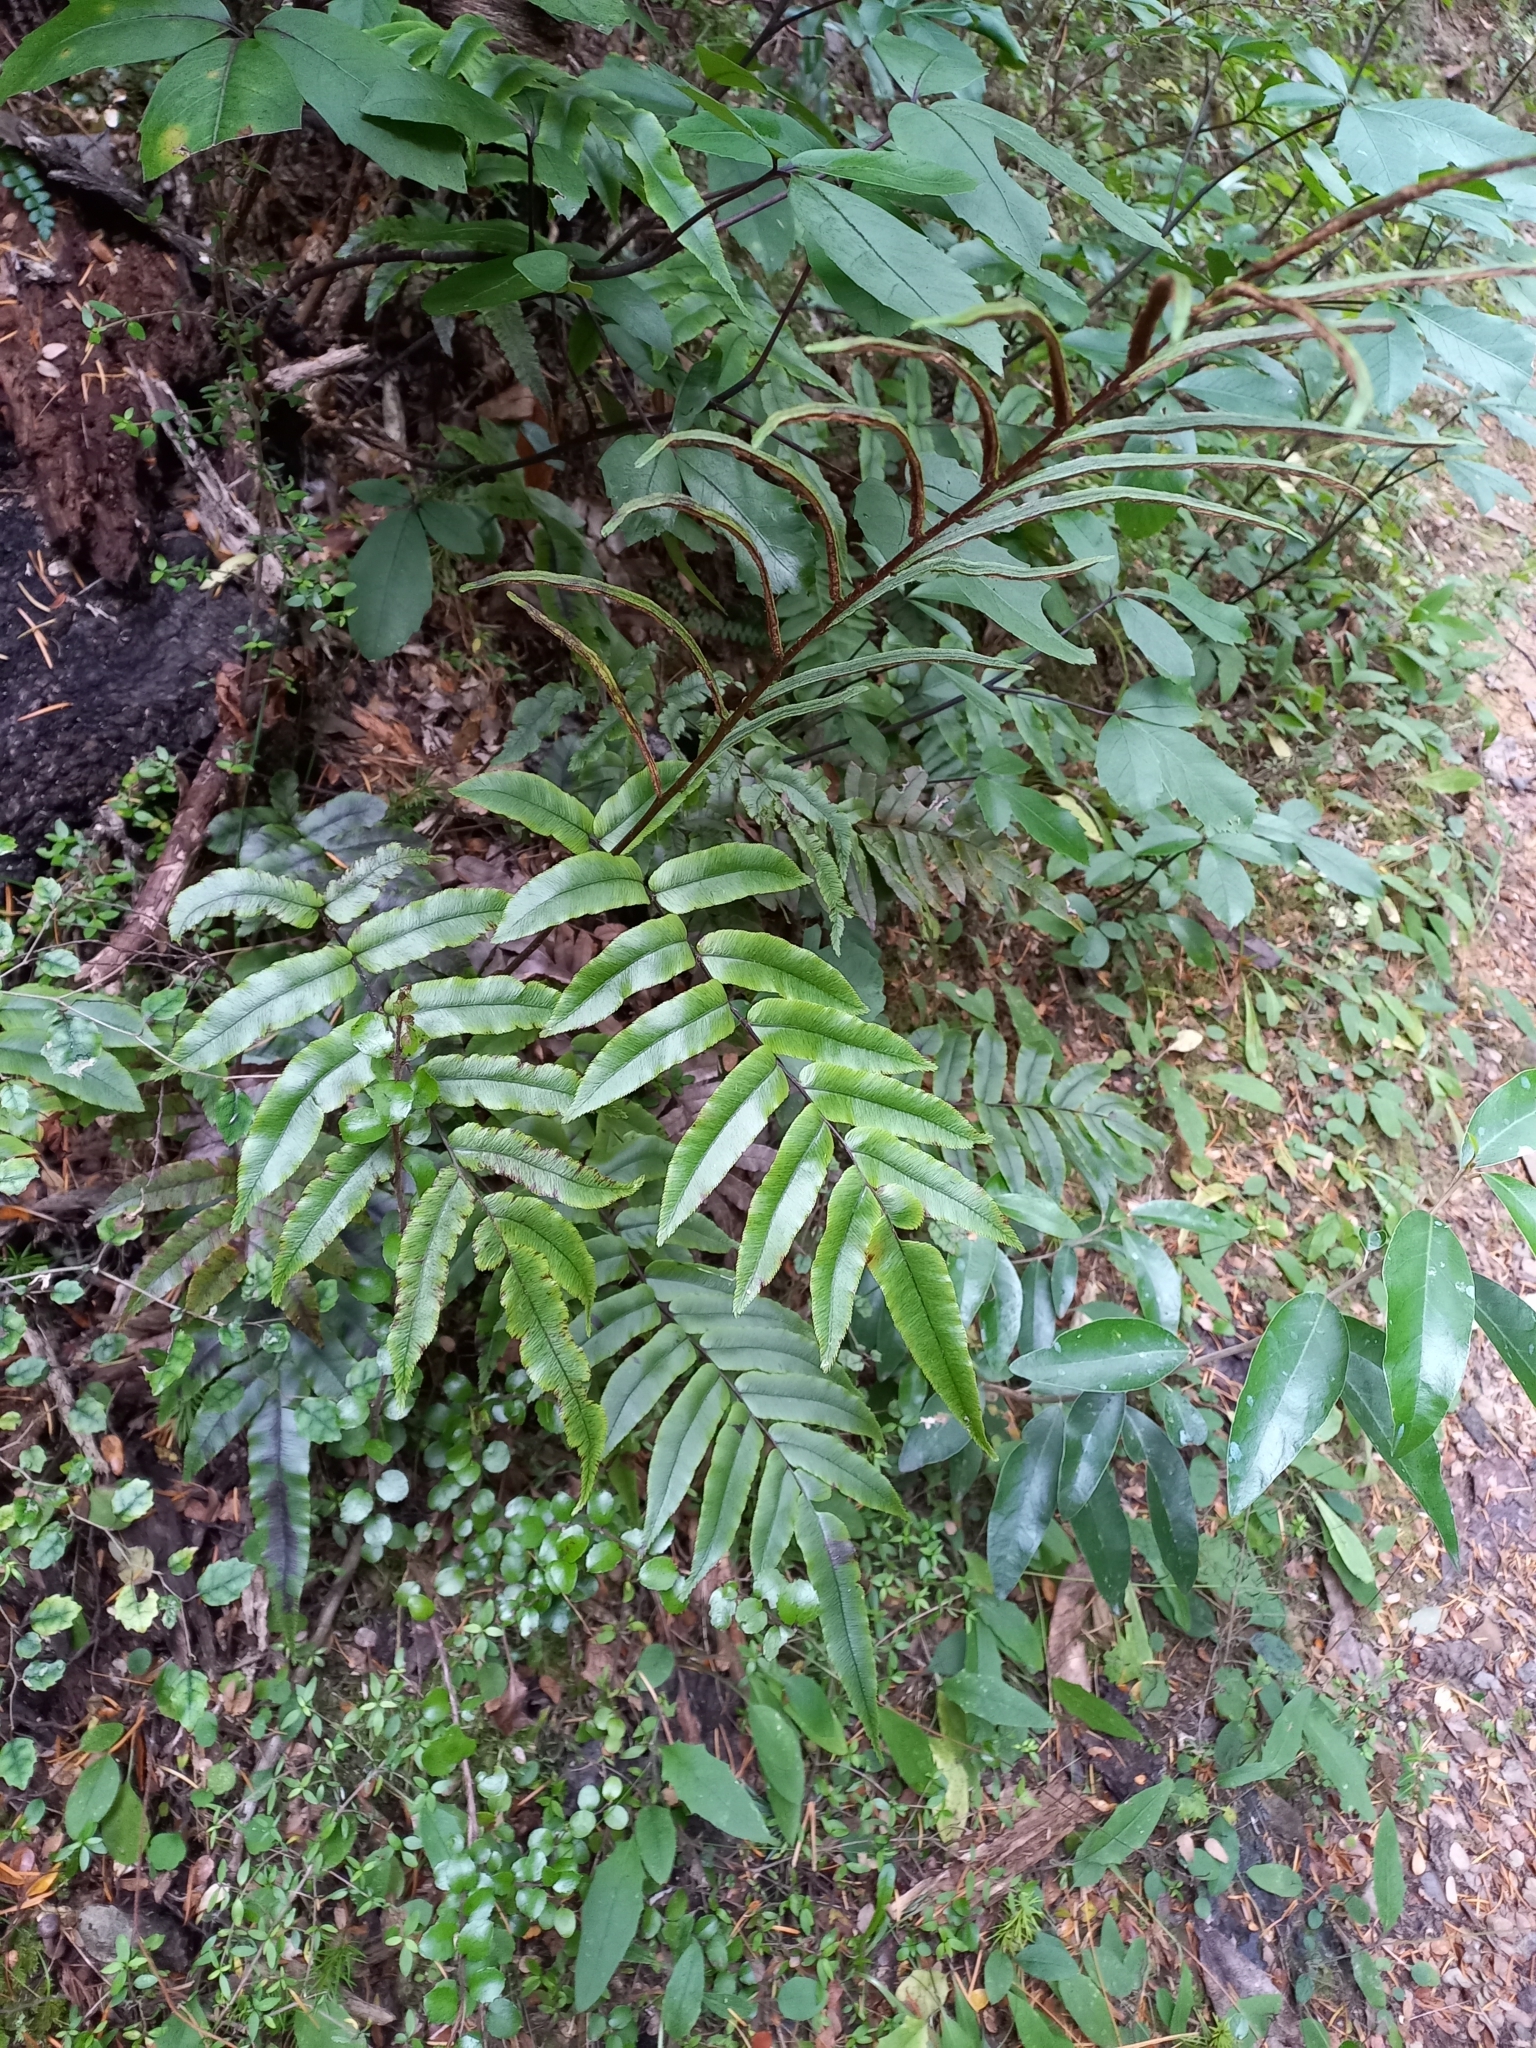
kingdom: Plantae
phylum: Tracheophyta
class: Polypodiopsida
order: Polypodiales
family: Blechnaceae
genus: Parablechnum
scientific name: Parablechnum procerum
